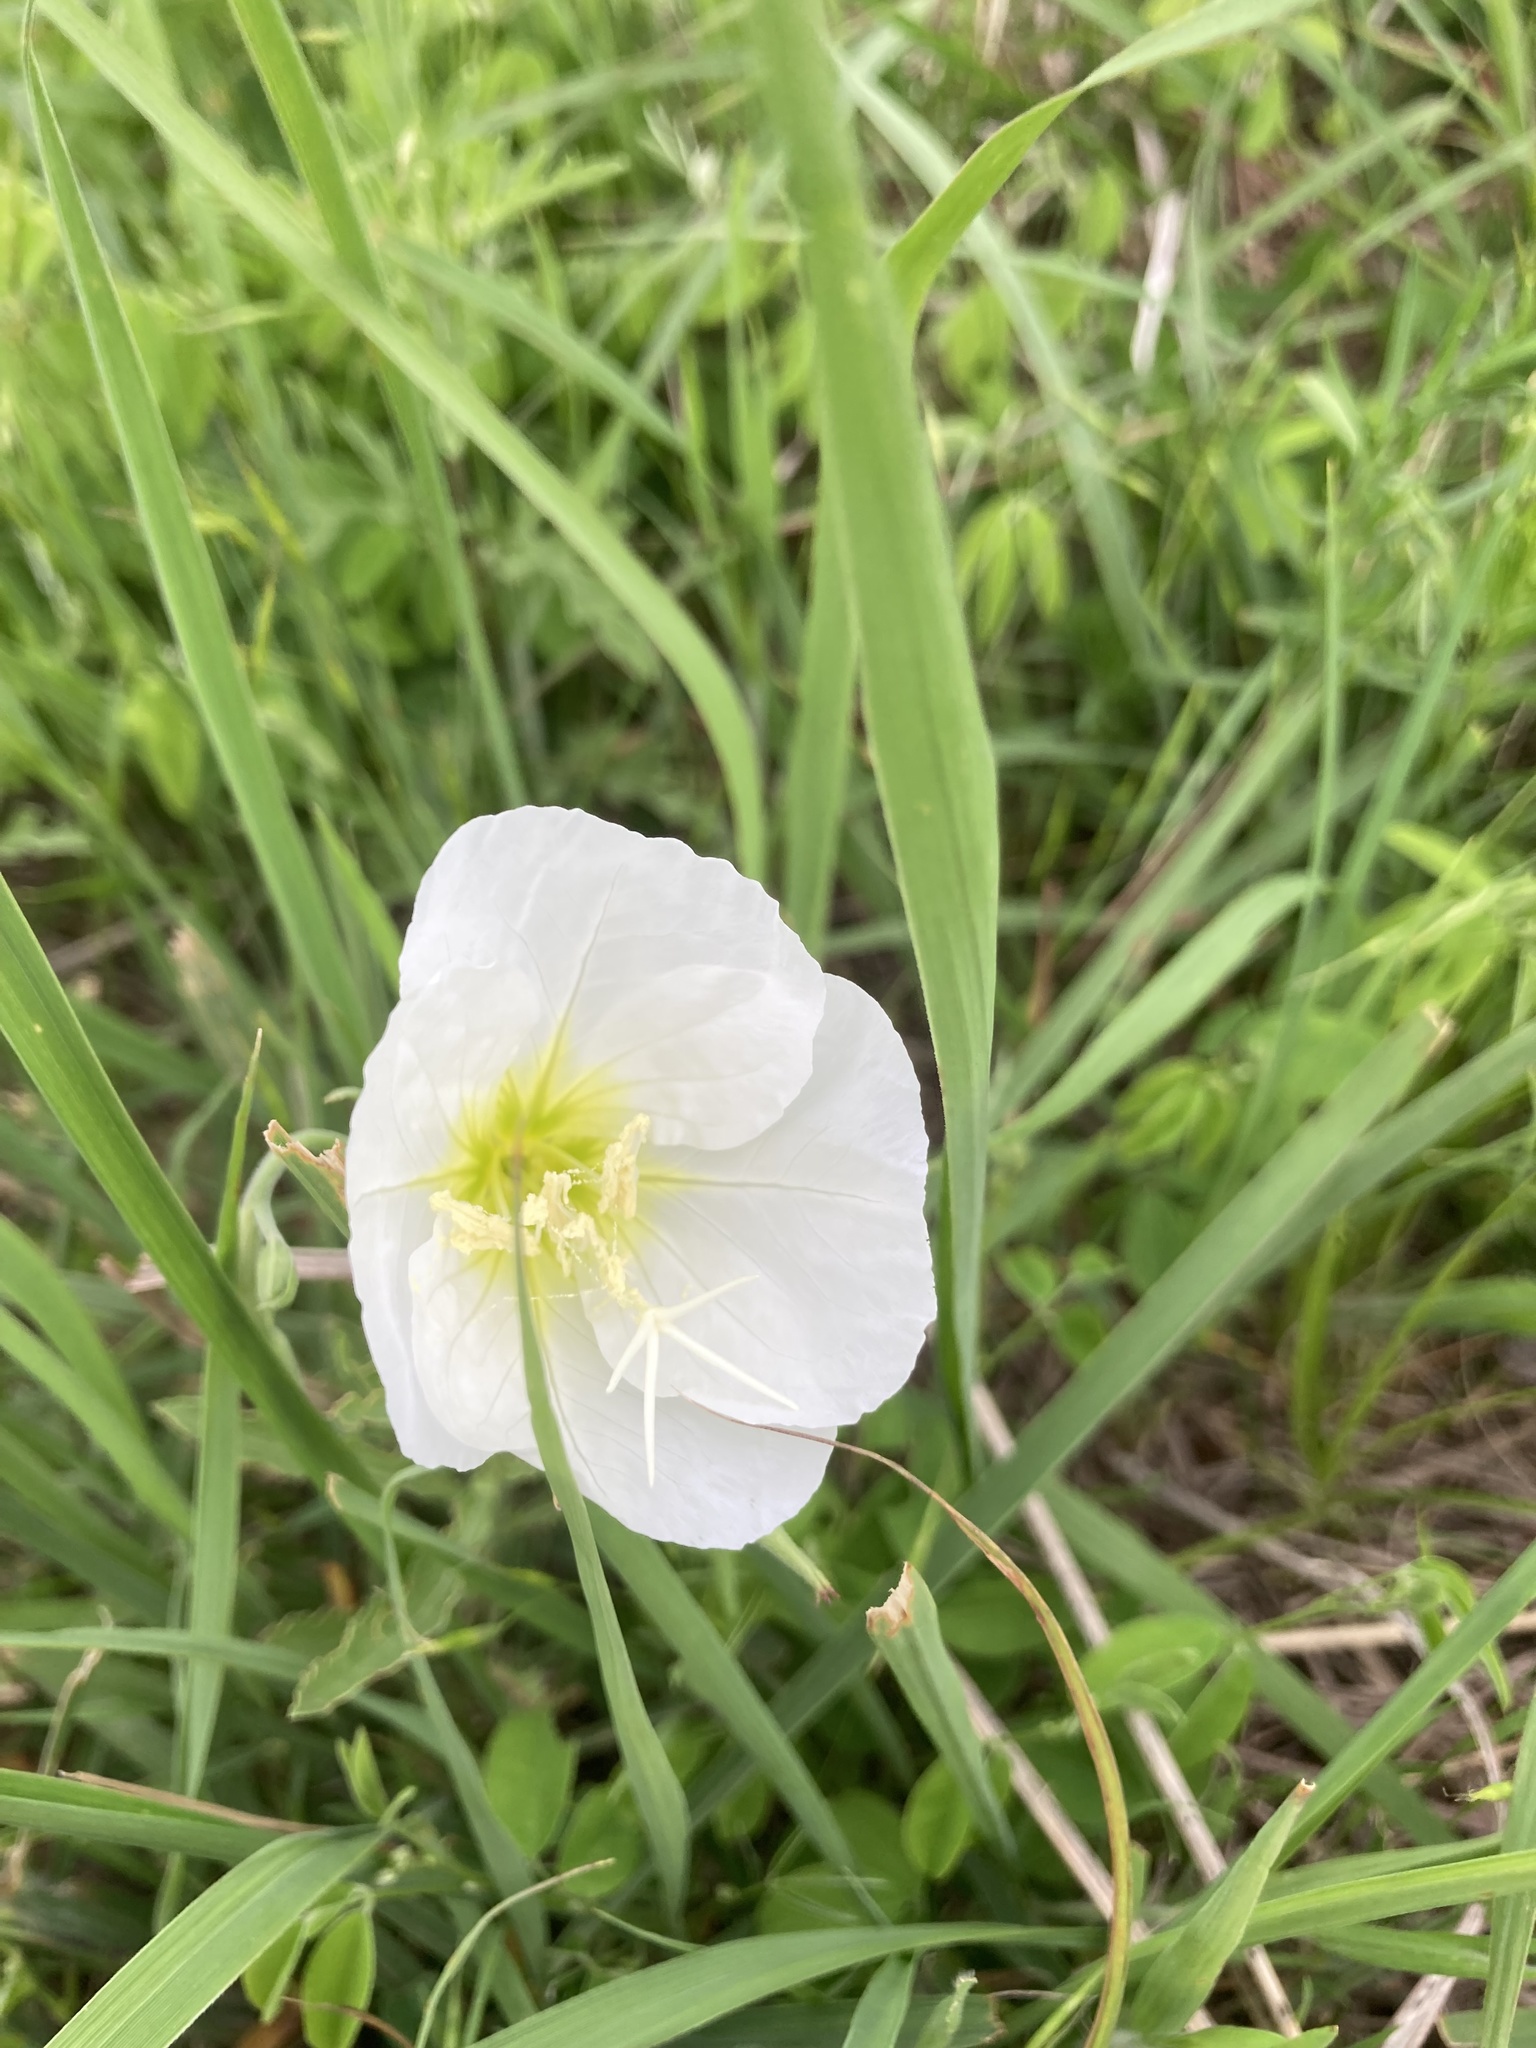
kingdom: Plantae
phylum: Tracheophyta
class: Magnoliopsida
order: Myrtales
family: Onagraceae
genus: Oenothera
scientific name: Oenothera speciosa
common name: White evening-primrose
